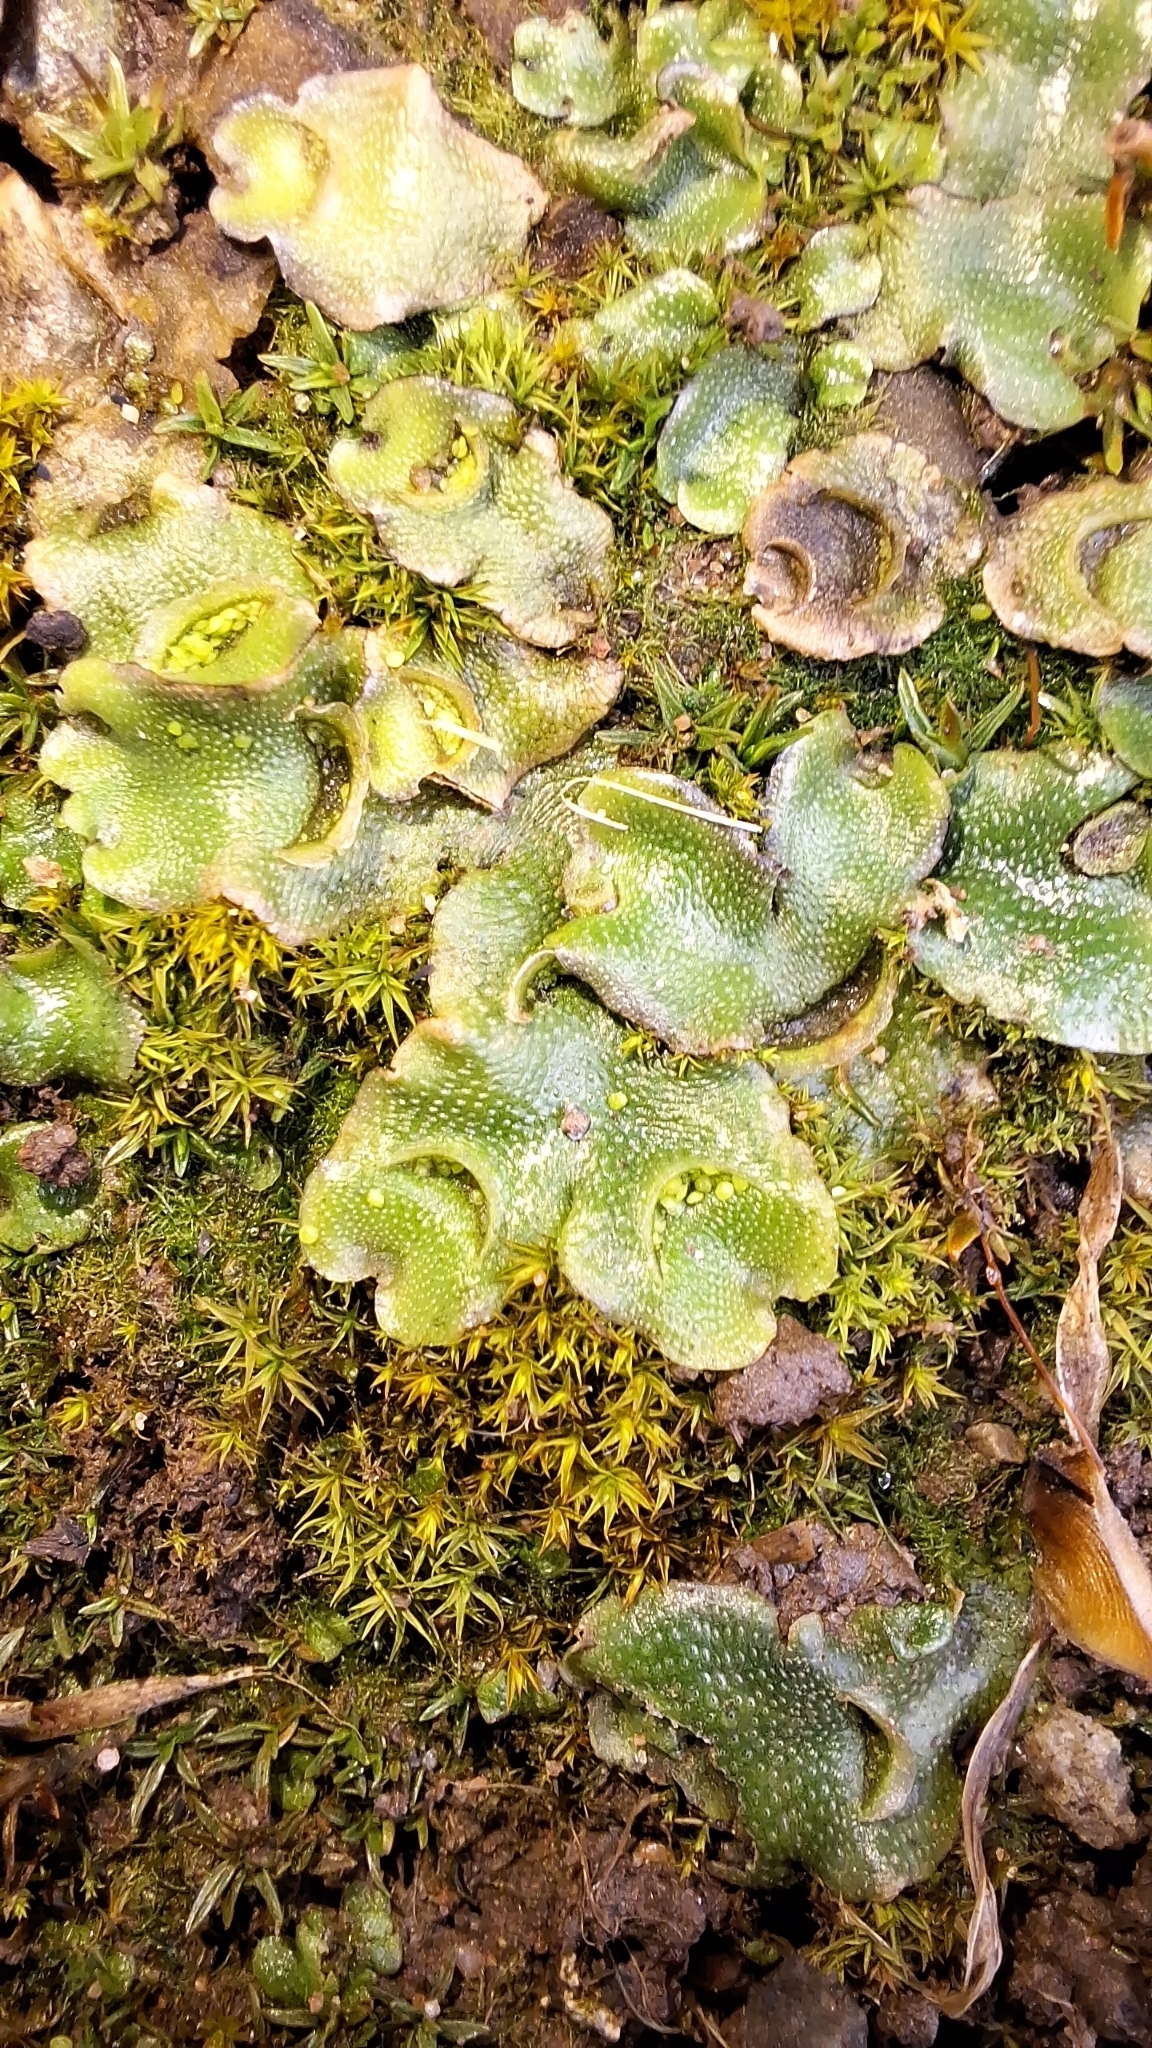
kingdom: Plantae
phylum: Marchantiophyta
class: Marchantiopsida
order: Lunulariales
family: Lunulariaceae
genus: Lunularia
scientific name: Lunularia cruciata
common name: Crescent-cup liverwort
